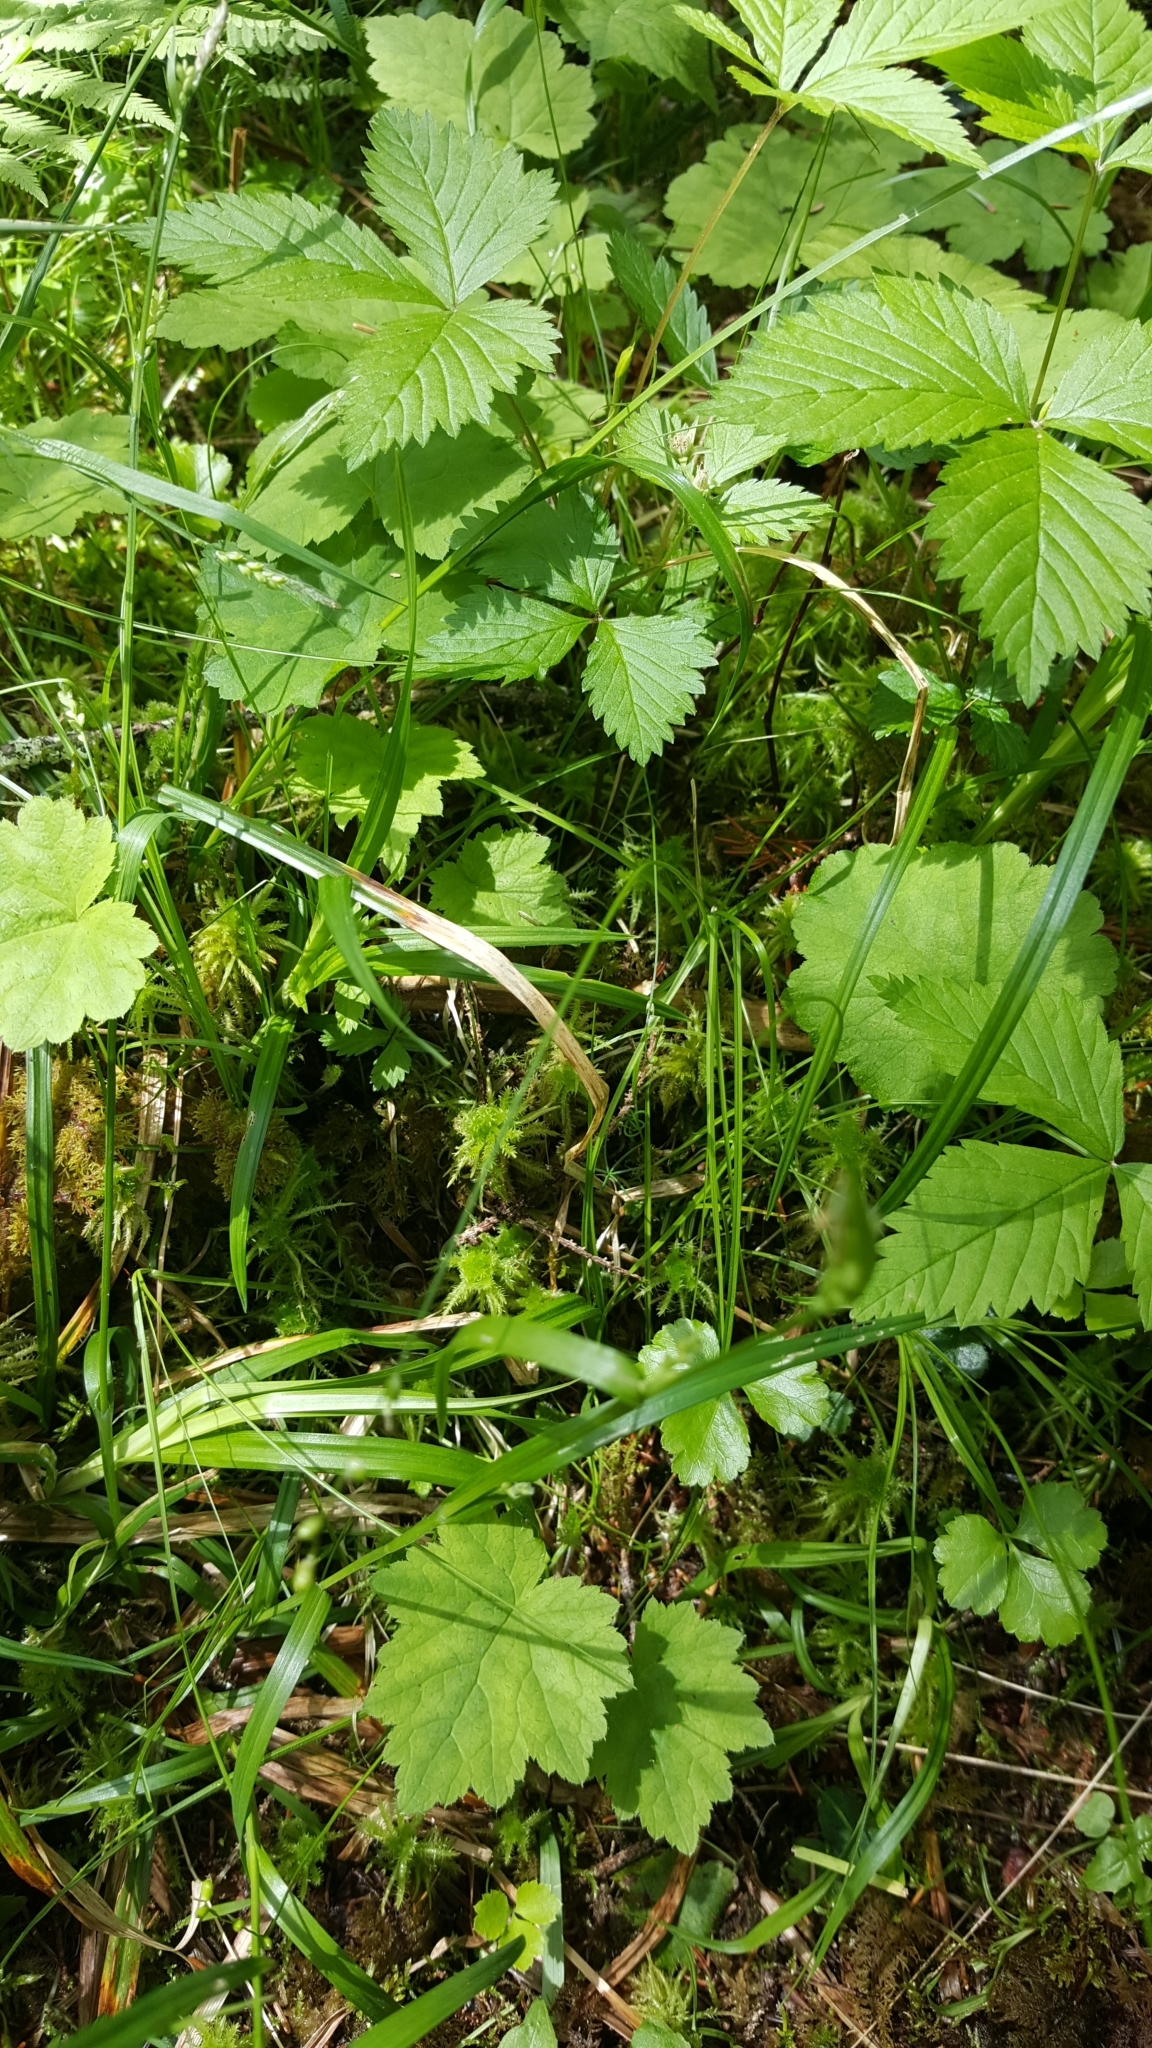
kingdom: Plantae
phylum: Tracheophyta
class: Liliopsida
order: Poales
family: Cyperaceae
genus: Carex
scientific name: Carex disperma
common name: Short-leaved sedge
